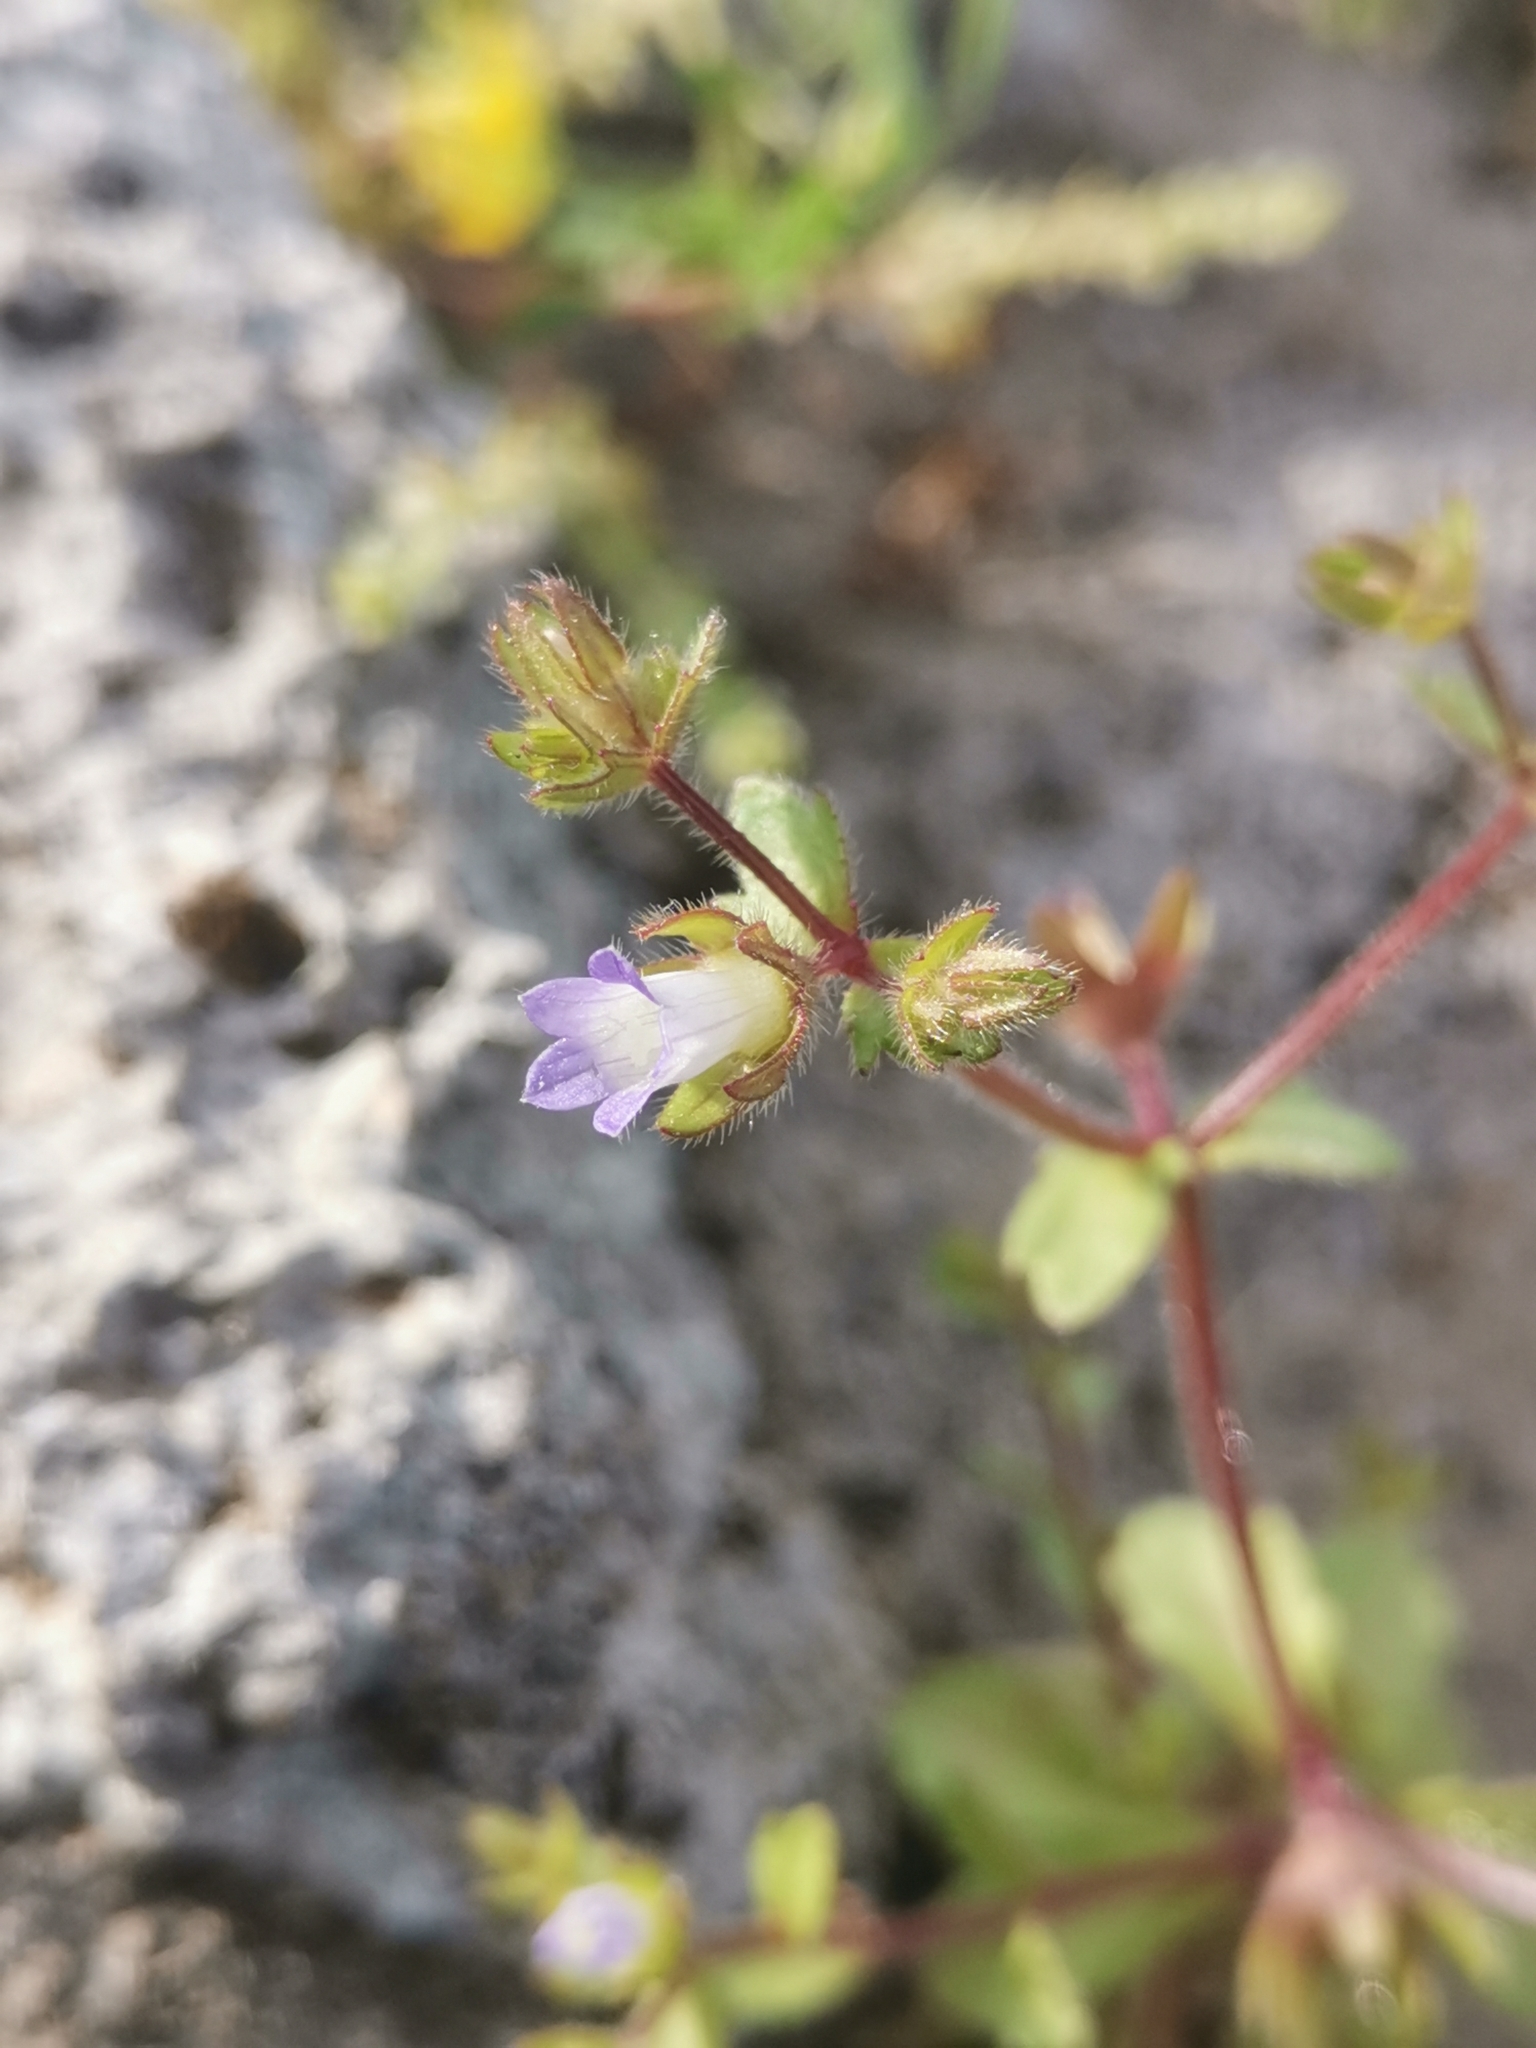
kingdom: Plantae
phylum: Tracheophyta
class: Magnoliopsida
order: Asterales
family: Campanulaceae
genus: Campanula
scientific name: Campanula erinus
